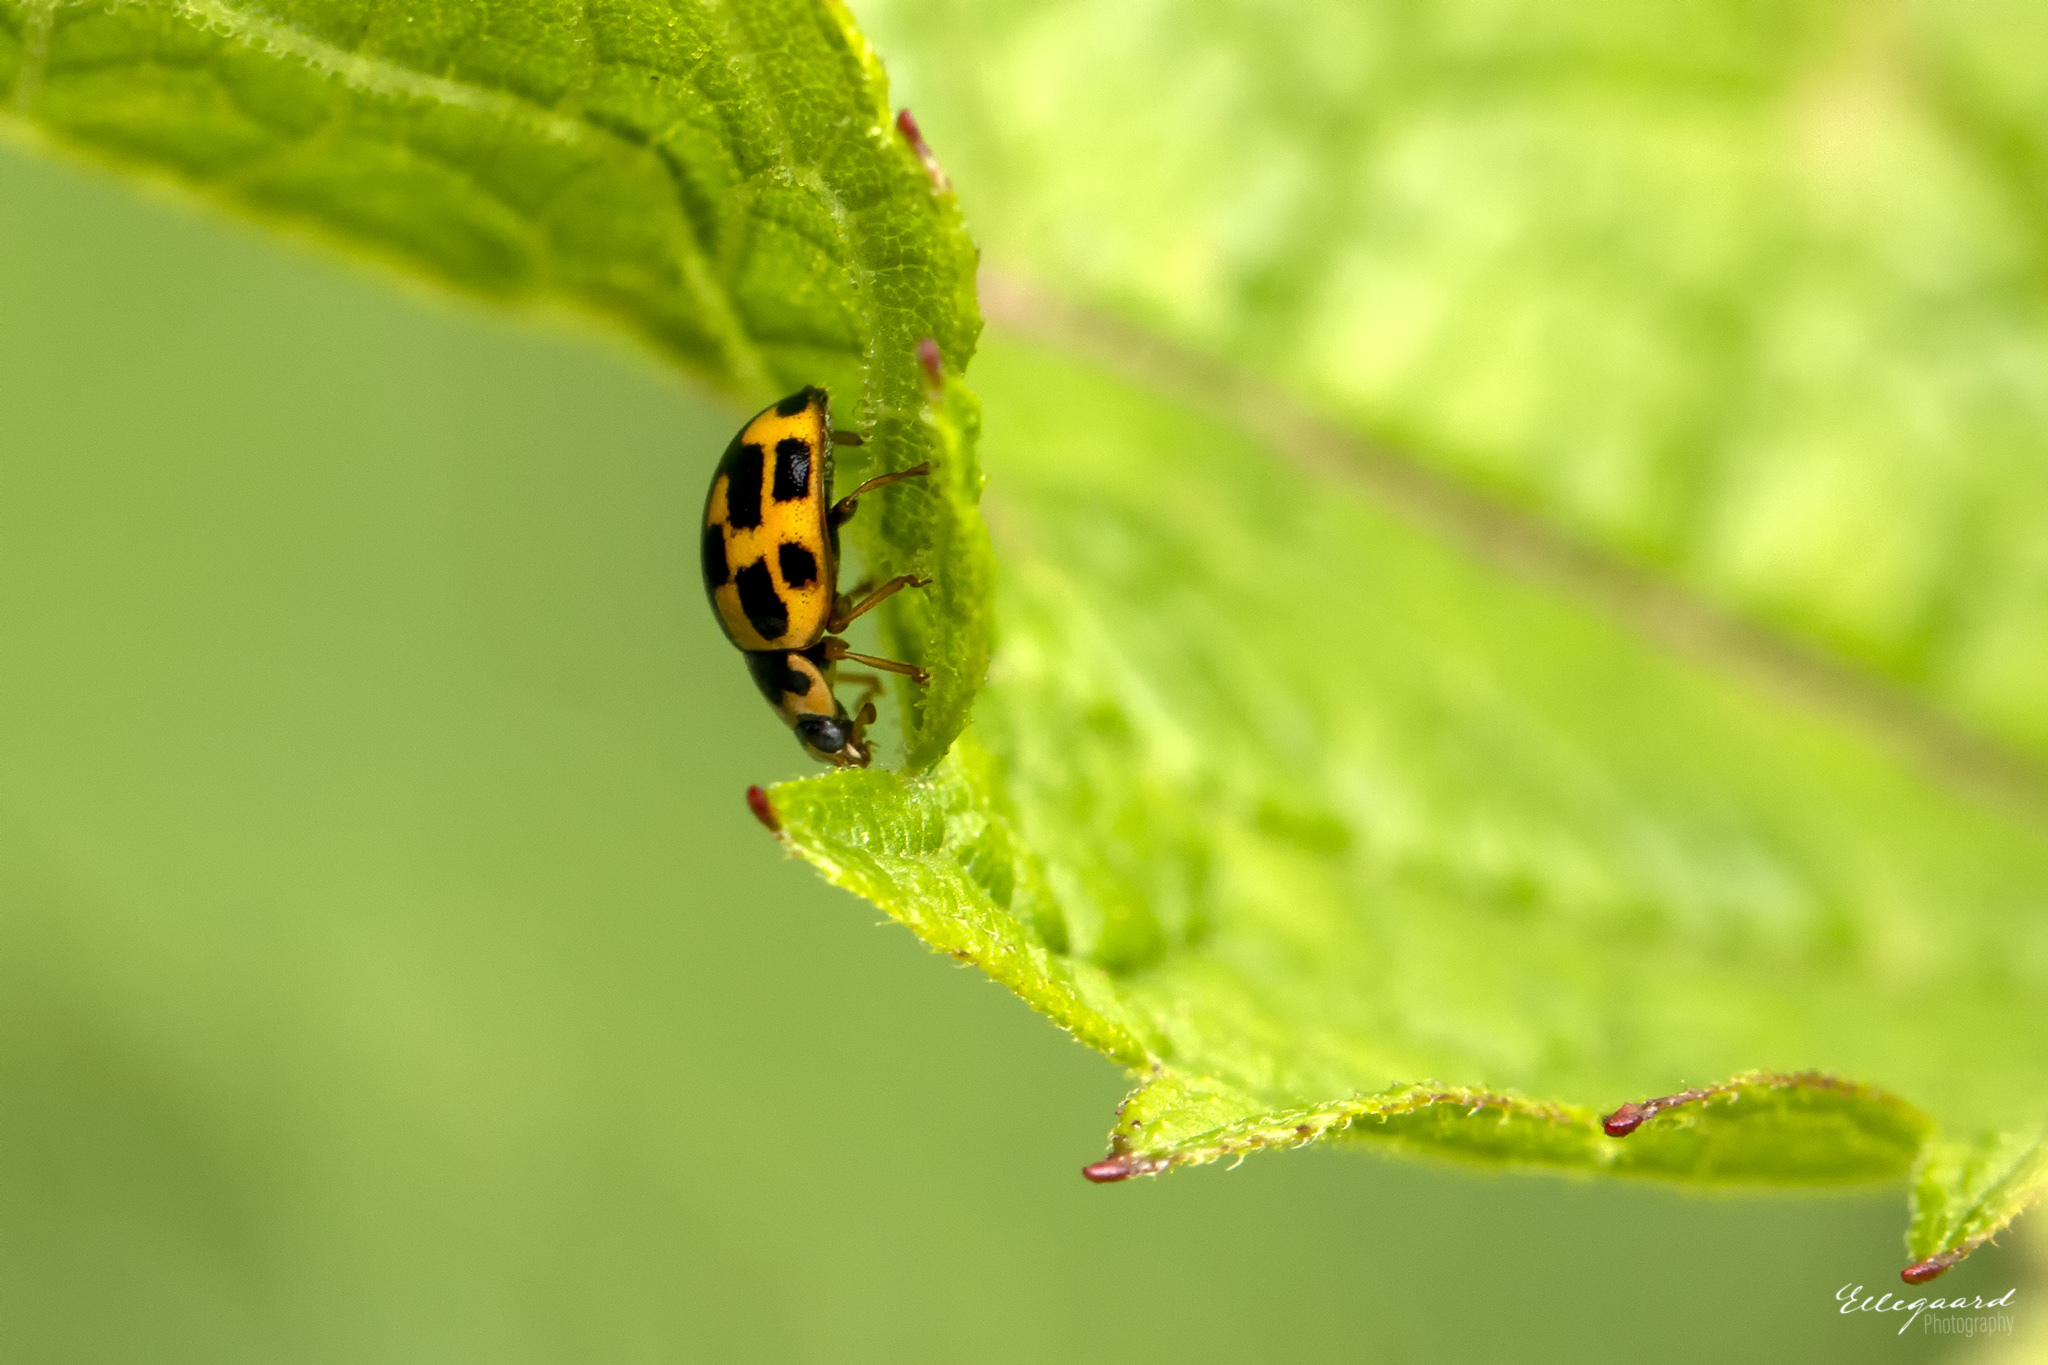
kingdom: Animalia
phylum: Arthropoda
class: Insecta
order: Coleoptera
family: Coccinellidae
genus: Propylaea
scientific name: Propylaea quatuordecimpunctata
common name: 14-spotted ladybird beetle
